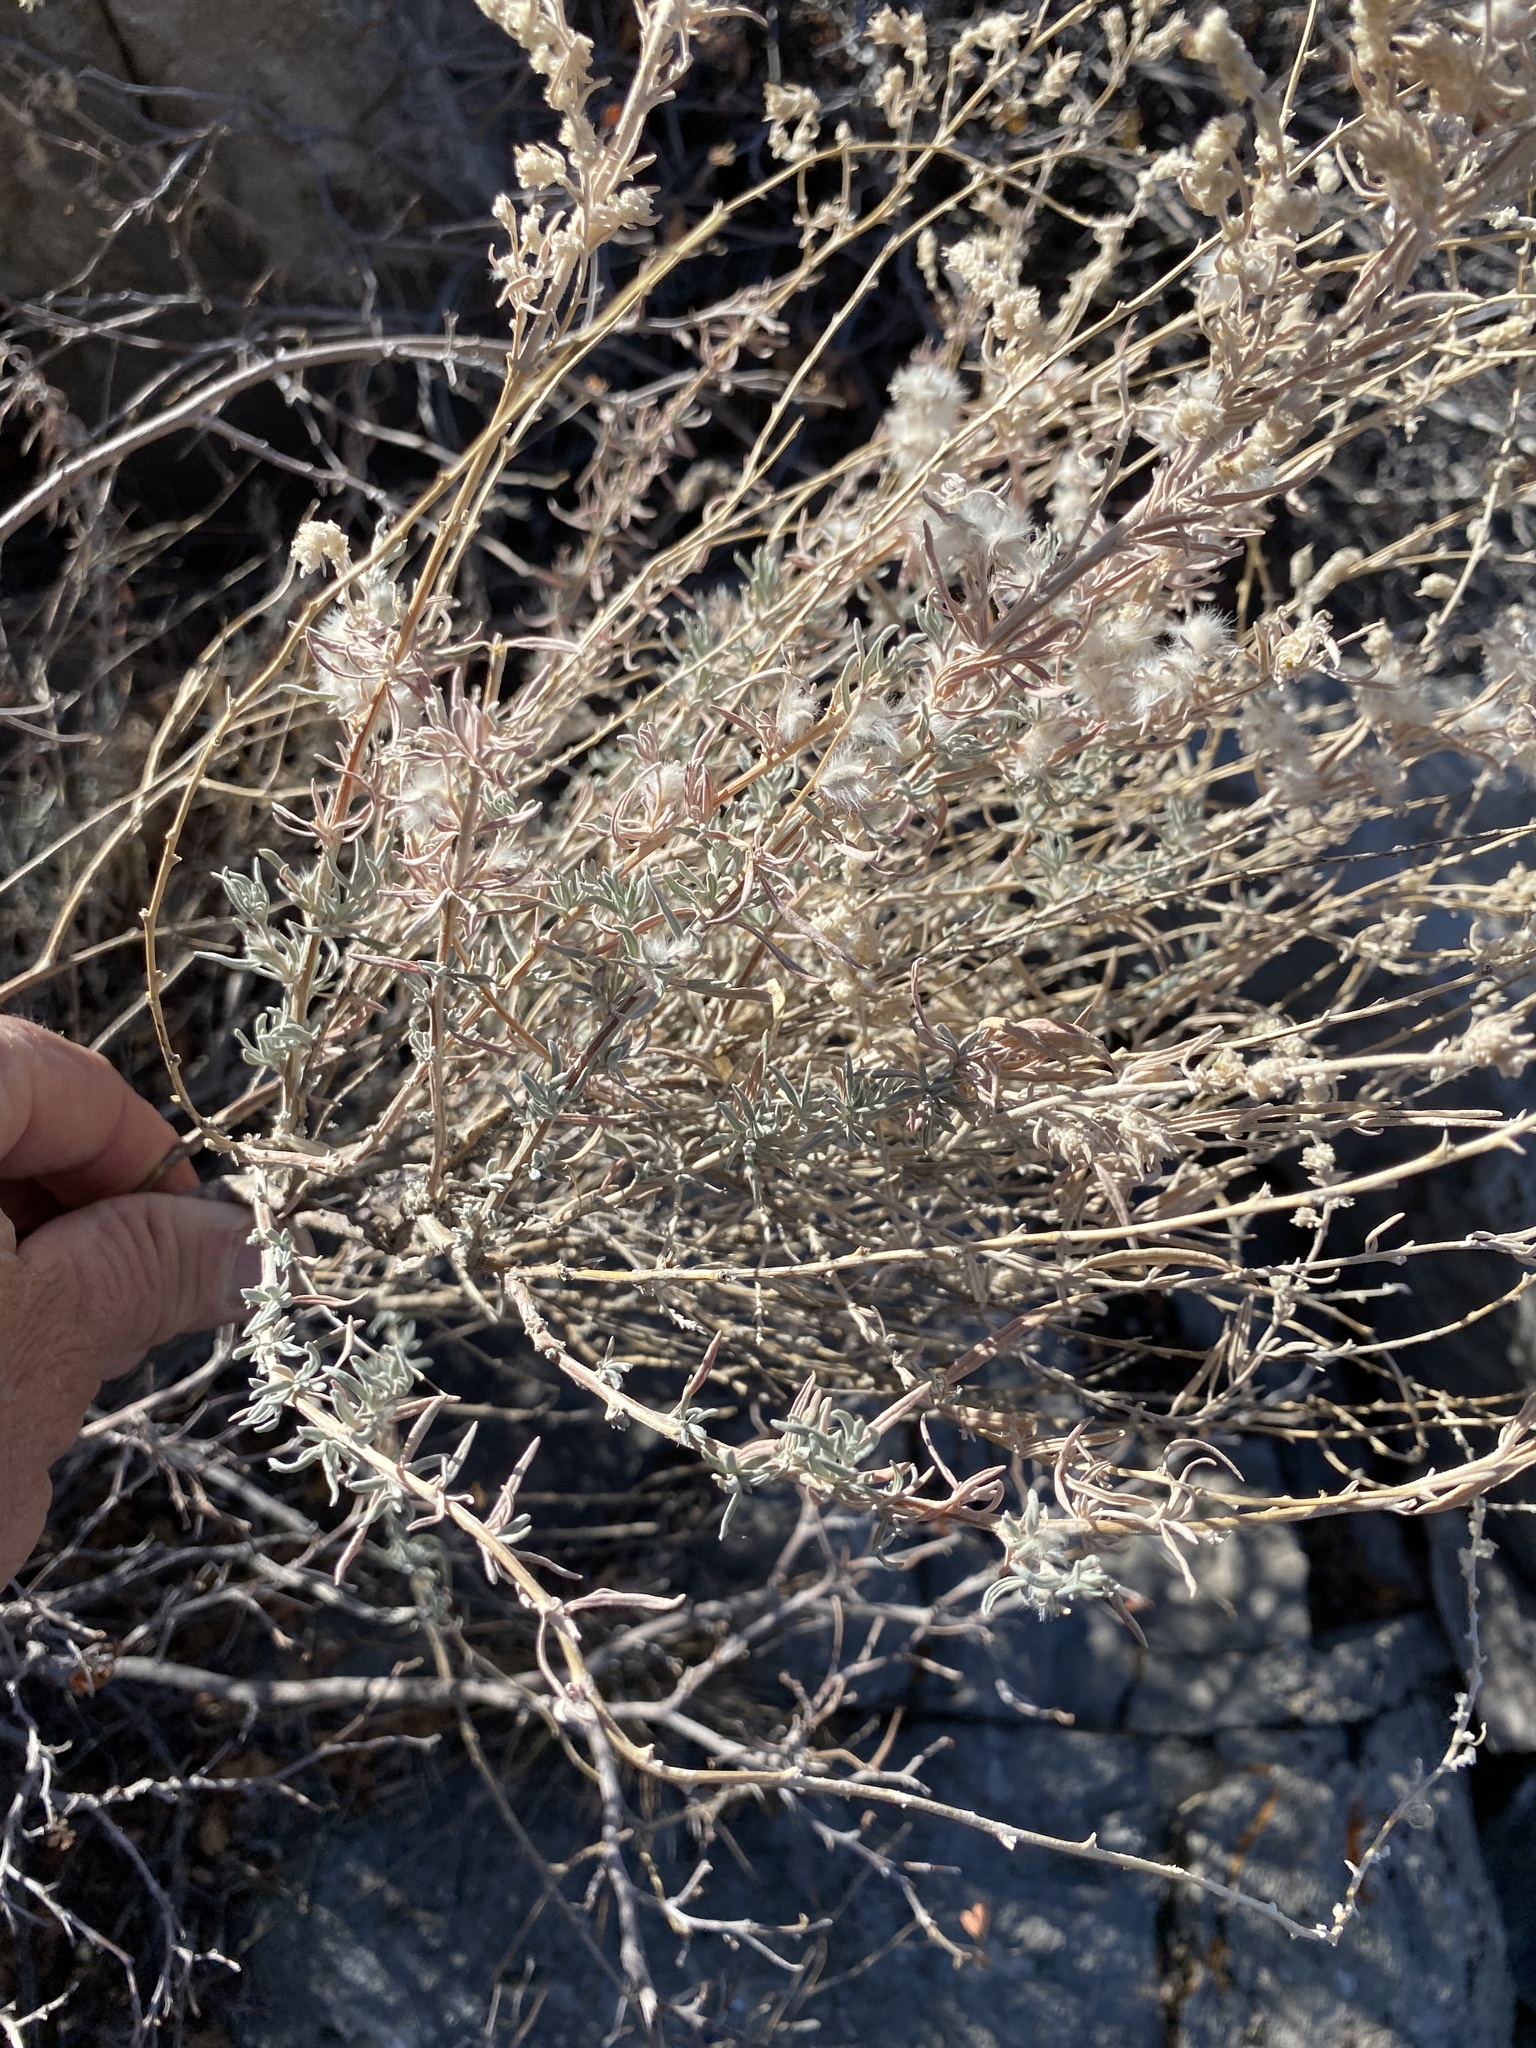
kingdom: Plantae
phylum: Tracheophyta
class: Magnoliopsida
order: Caryophyllales
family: Amaranthaceae
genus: Krascheninnikovia
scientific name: Krascheninnikovia lanata
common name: Winterfat
